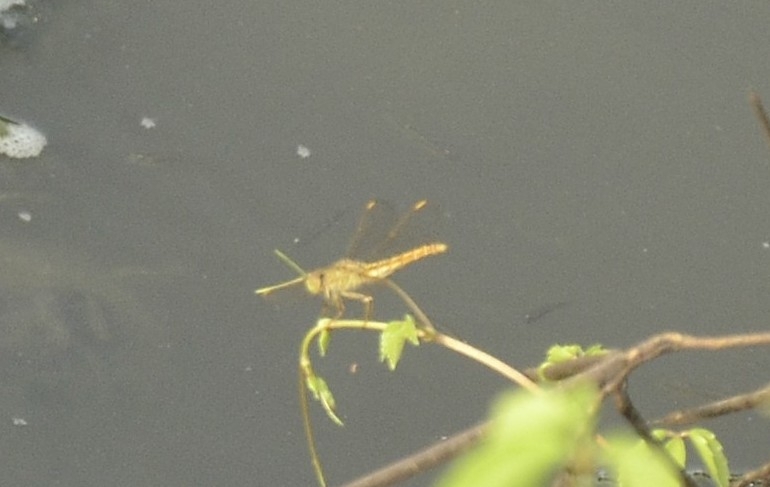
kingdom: Animalia
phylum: Arthropoda
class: Insecta
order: Odonata
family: Libellulidae
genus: Brachythemis
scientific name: Brachythemis contaminata
